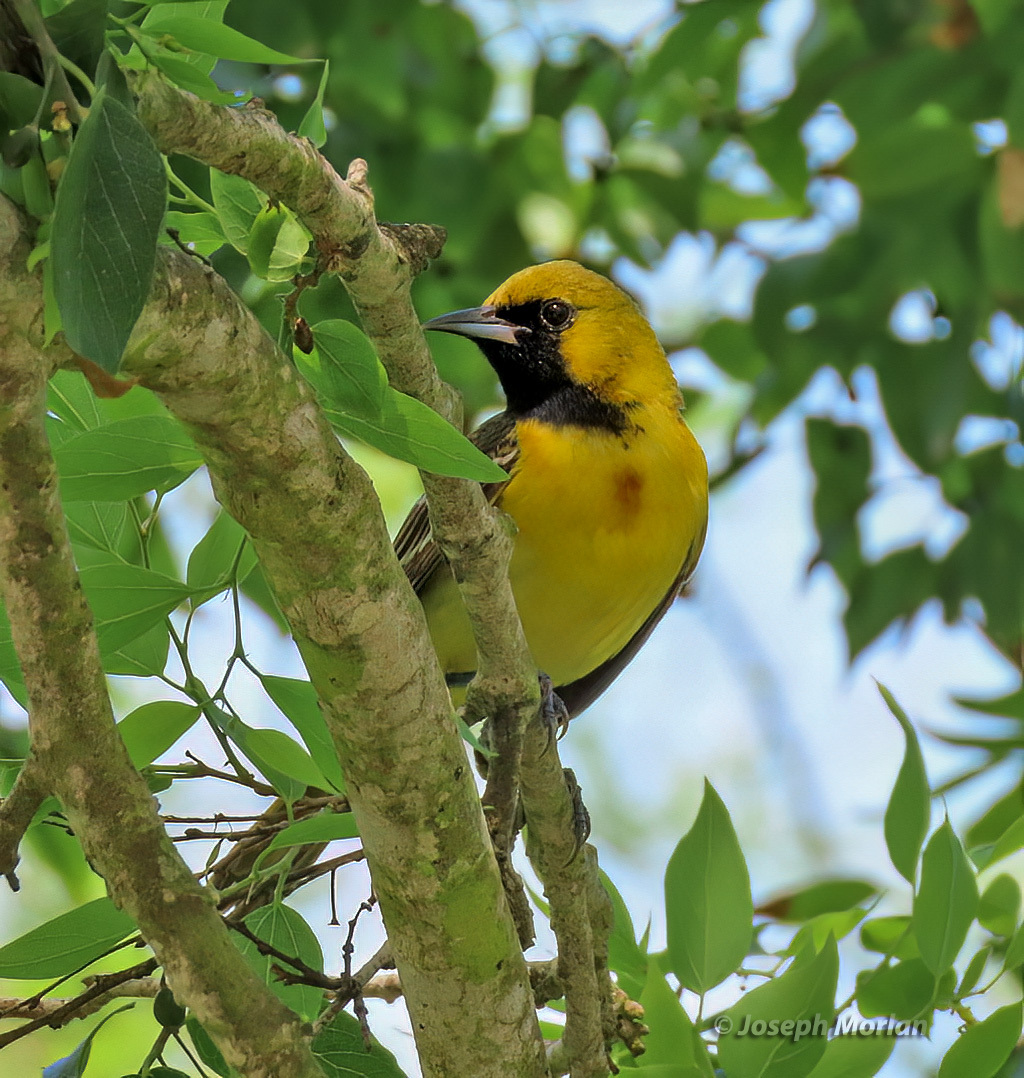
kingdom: Animalia
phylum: Chordata
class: Aves
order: Passeriformes
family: Icteridae
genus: Icterus
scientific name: Icterus spurius
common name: Orchard oriole
